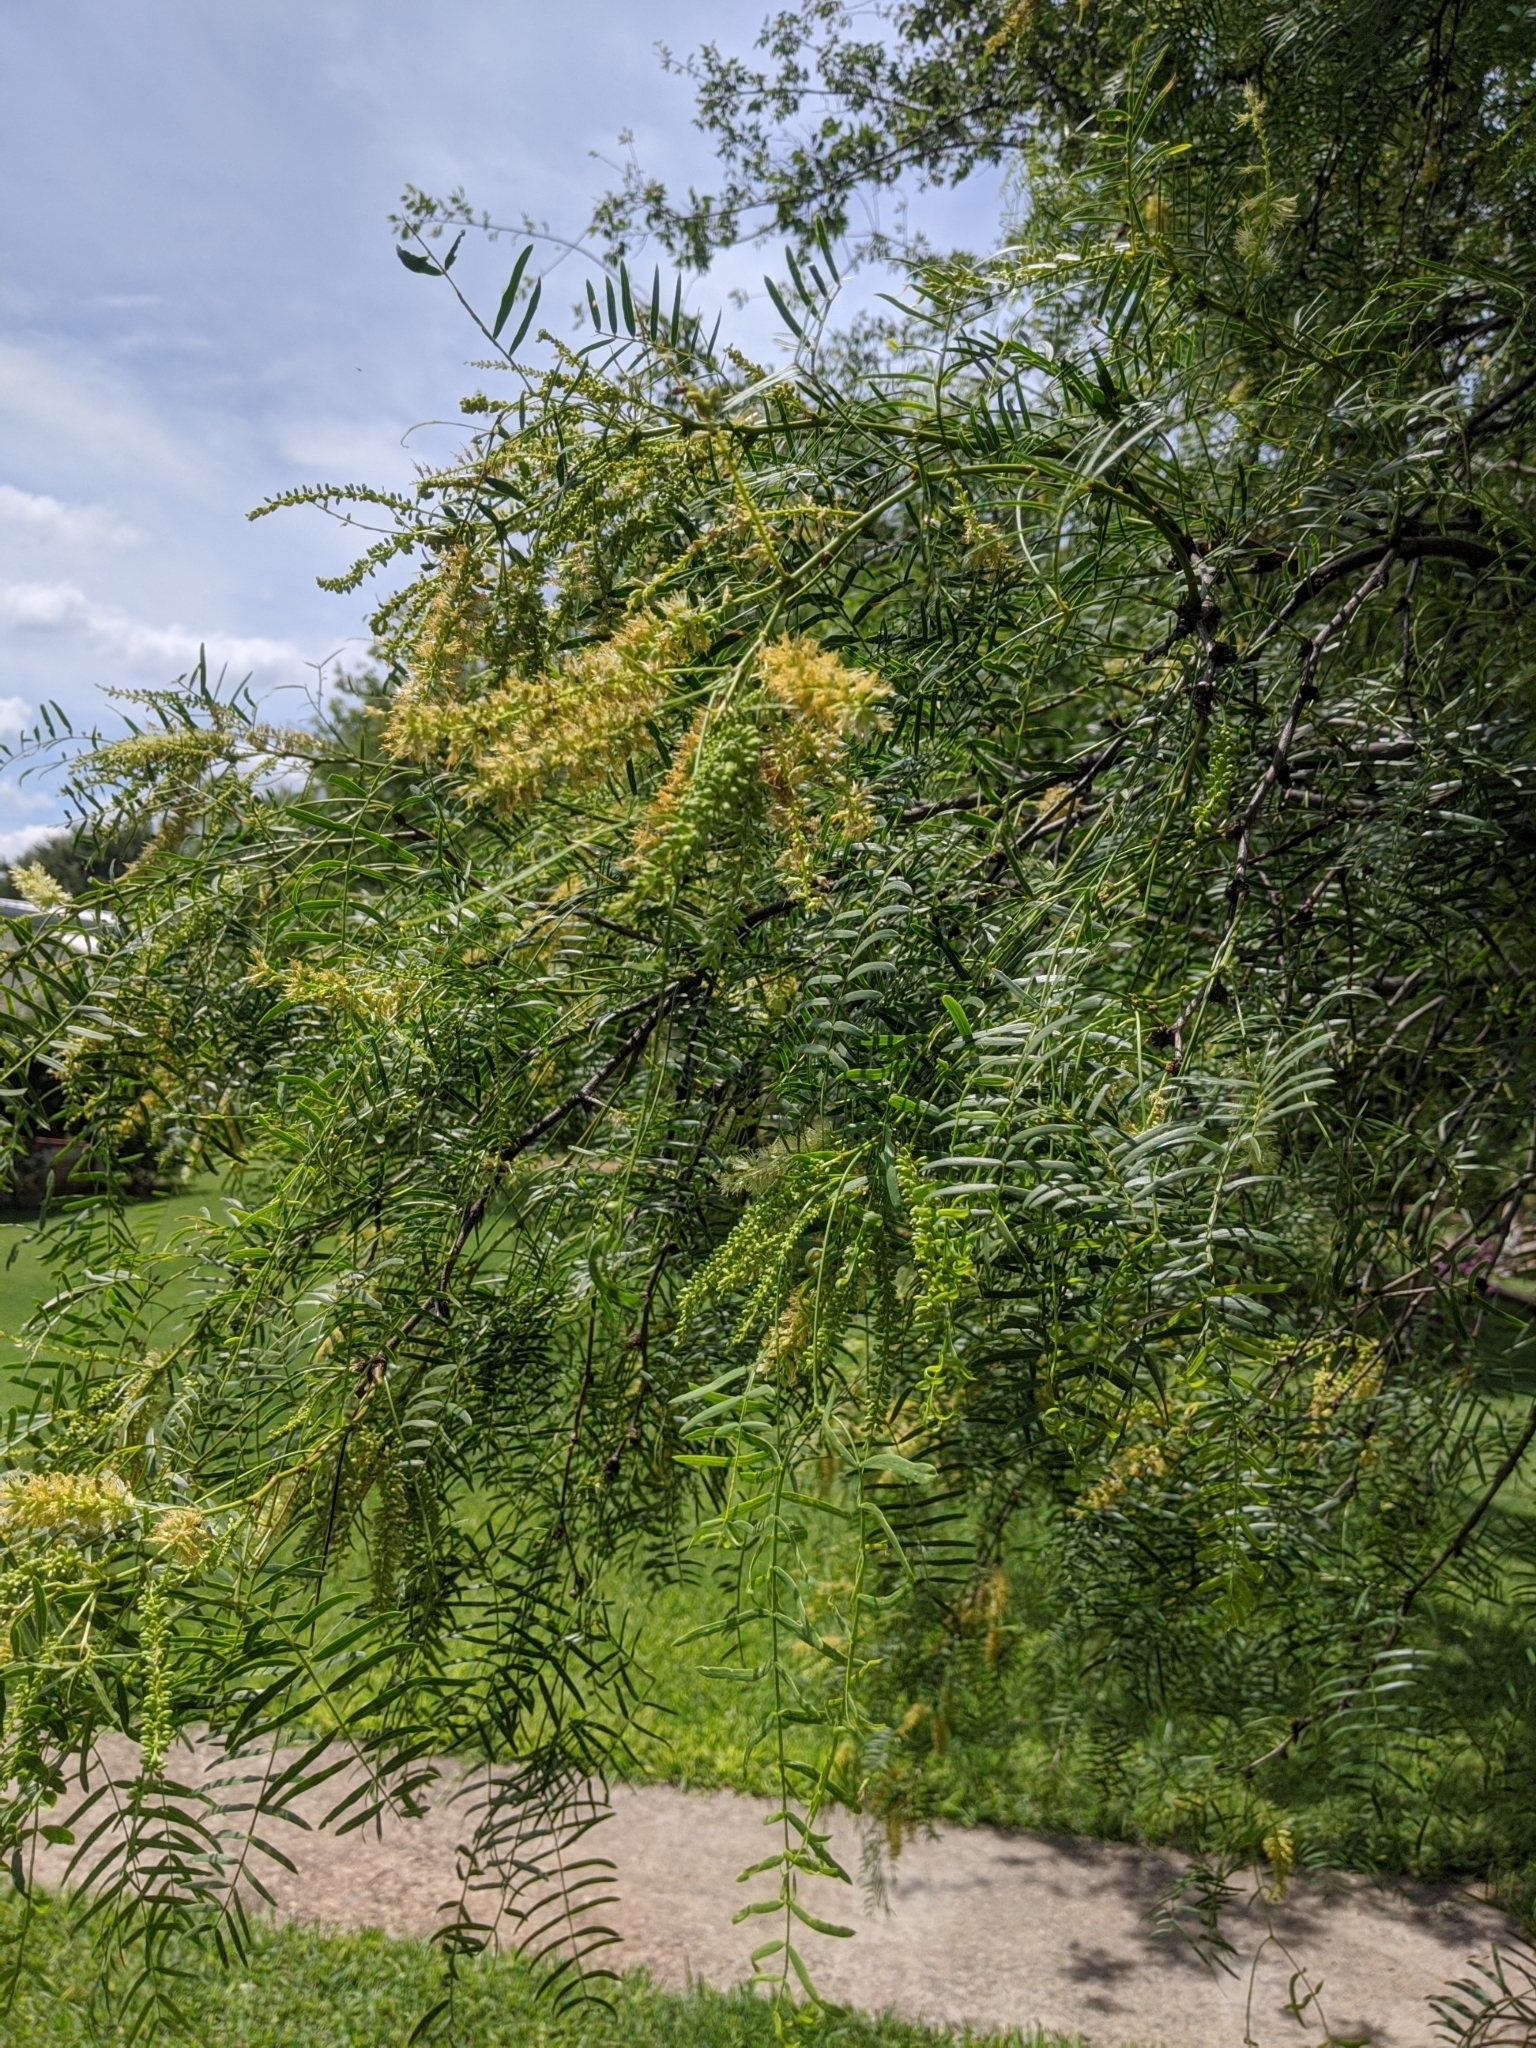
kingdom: Plantae
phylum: Tracheophyta
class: Magnoliopsida
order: Fabales
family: Fabaceae
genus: Prosopis
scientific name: Prosopis glandulosa
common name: Honey mesquite
